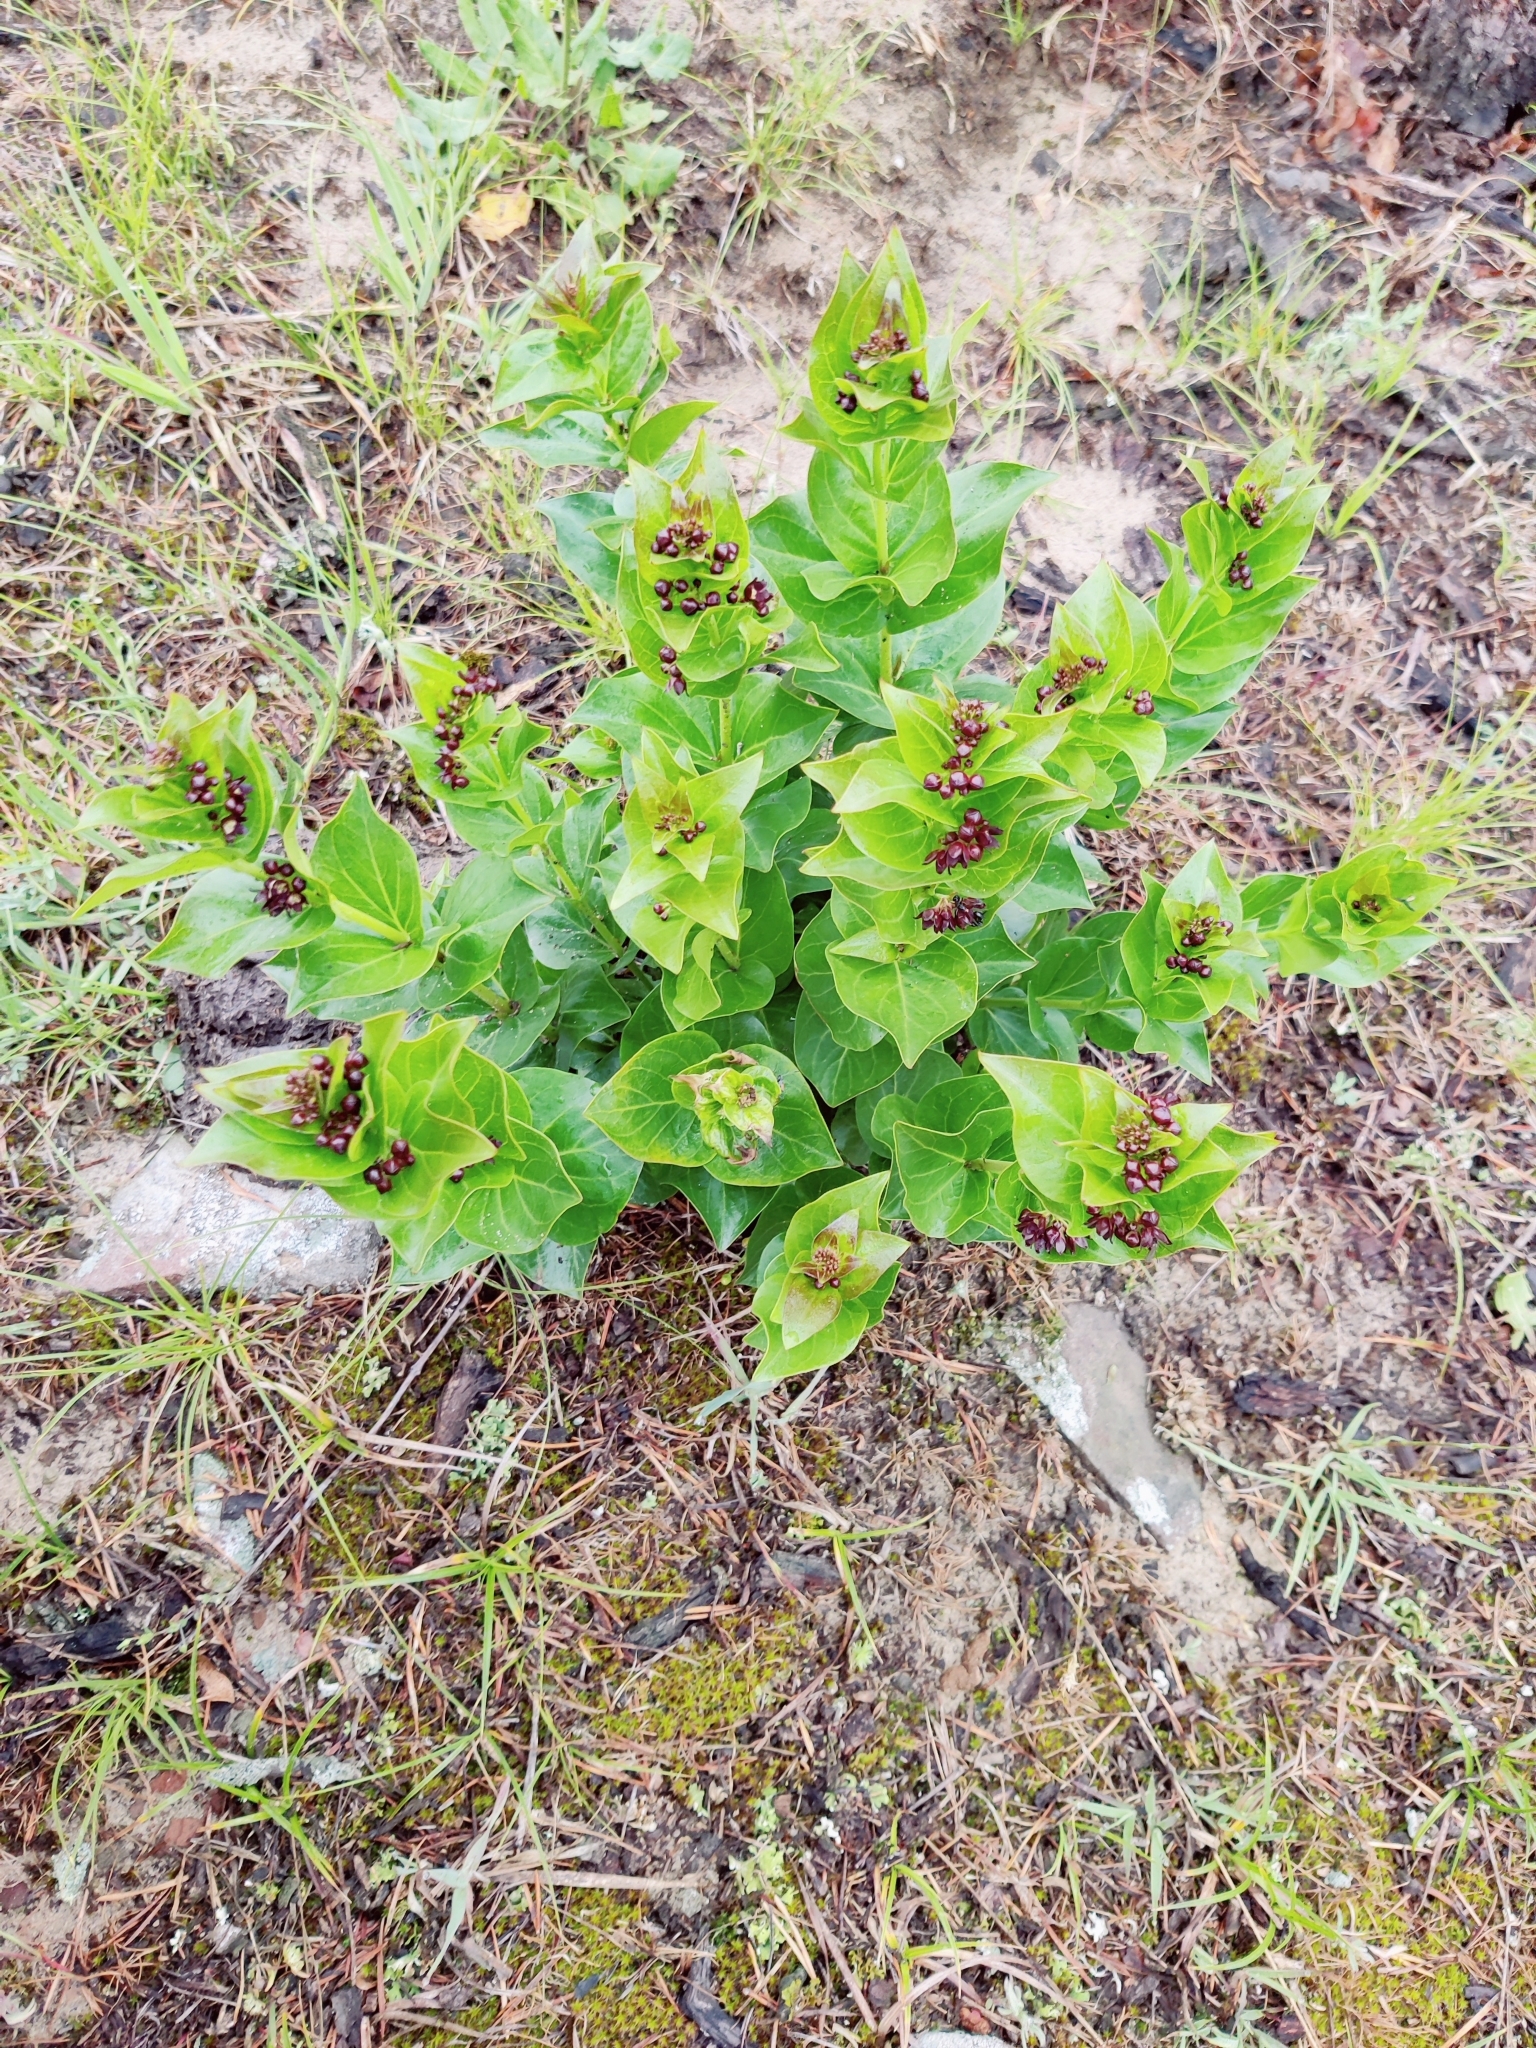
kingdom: Plantae
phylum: Tracheophyta
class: Magnoliopsida
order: Gentianales
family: Apocynaceae
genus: Vincetoxicum
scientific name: Vincetoxicum funebre
